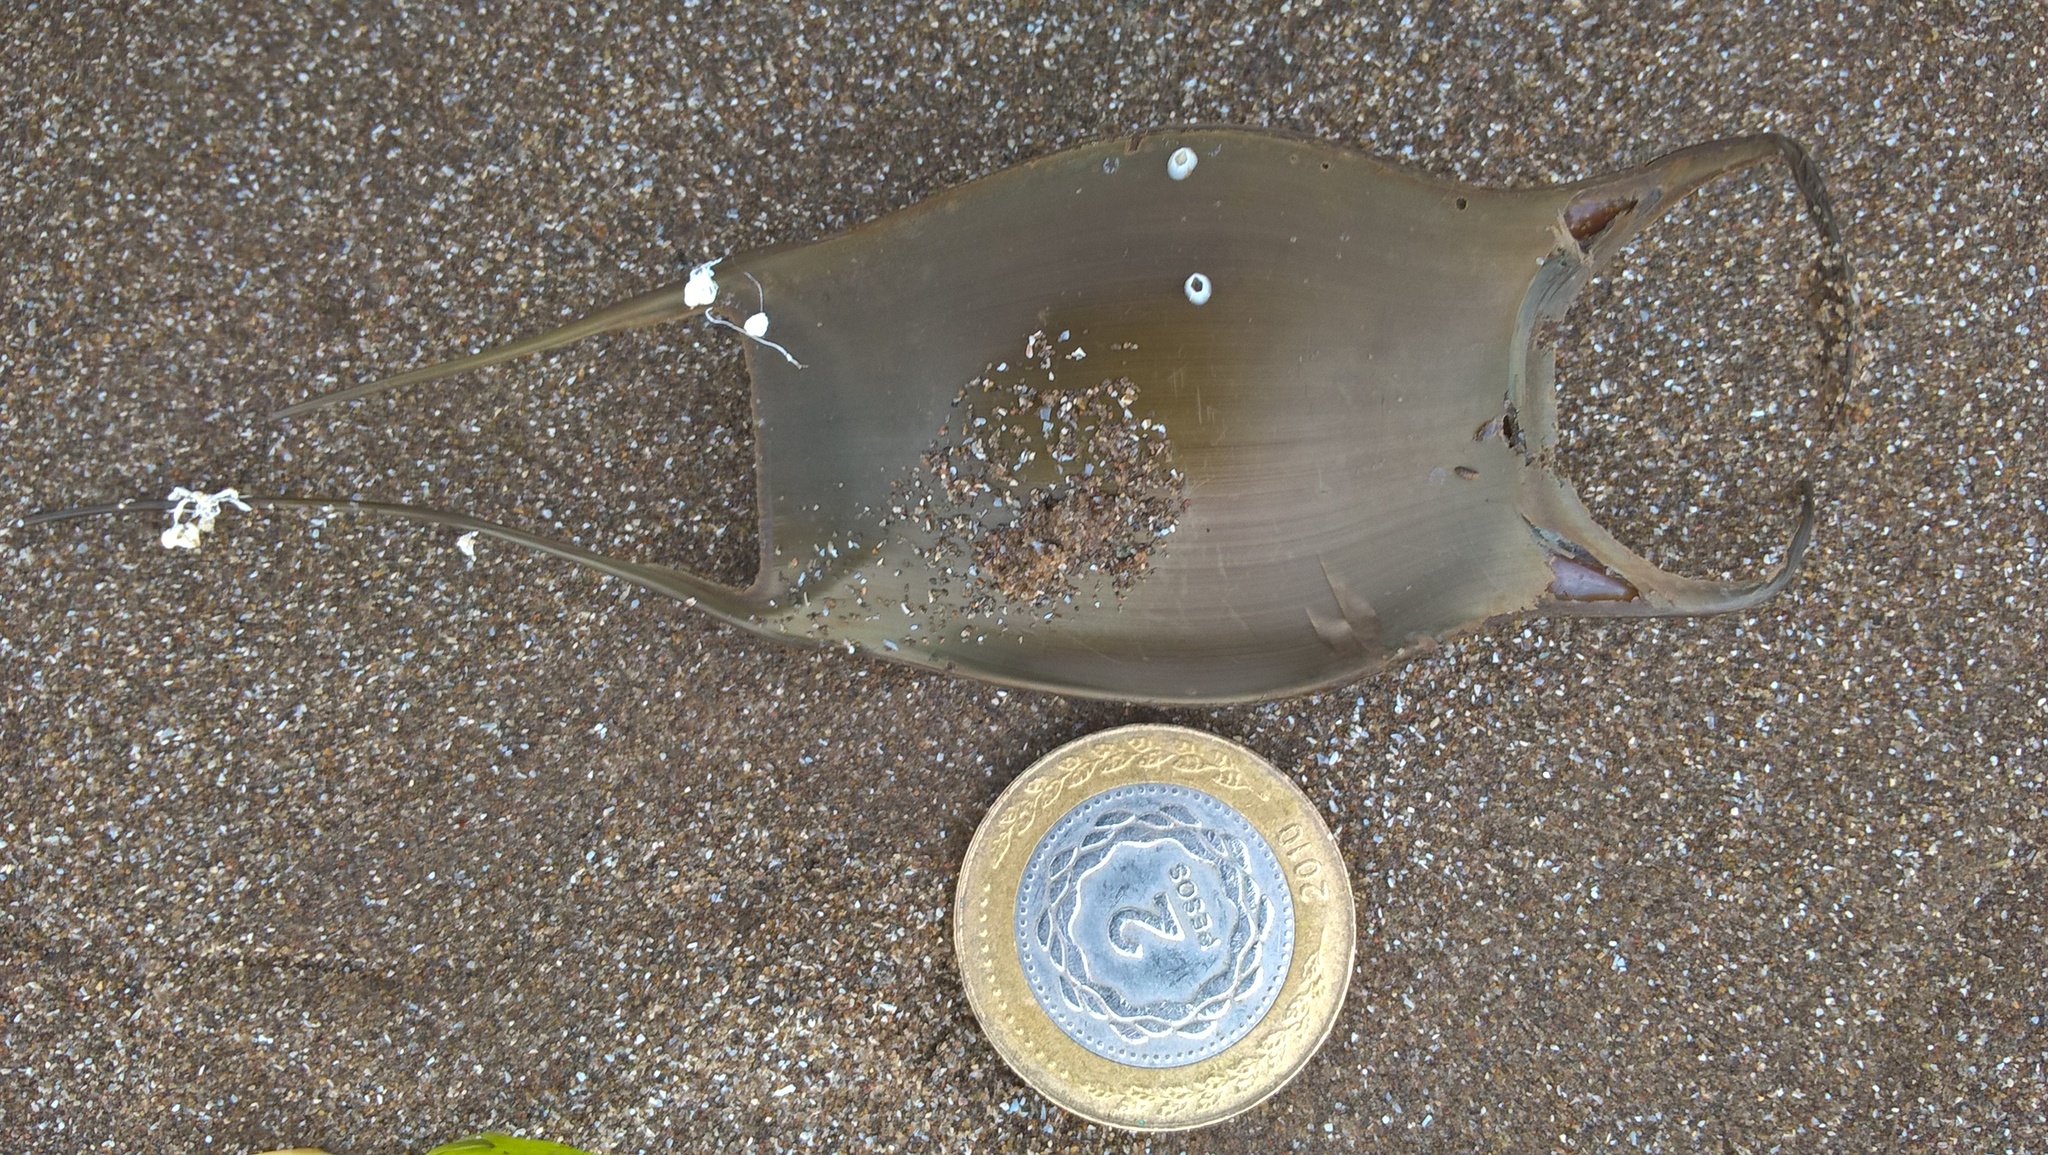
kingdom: Animalia
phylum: Chordata
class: Elasmobranchii
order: Rajiformes
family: Arhynchobatidae
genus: Sympterygia
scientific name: Sympterygia acuta
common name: Bignose fanskate
